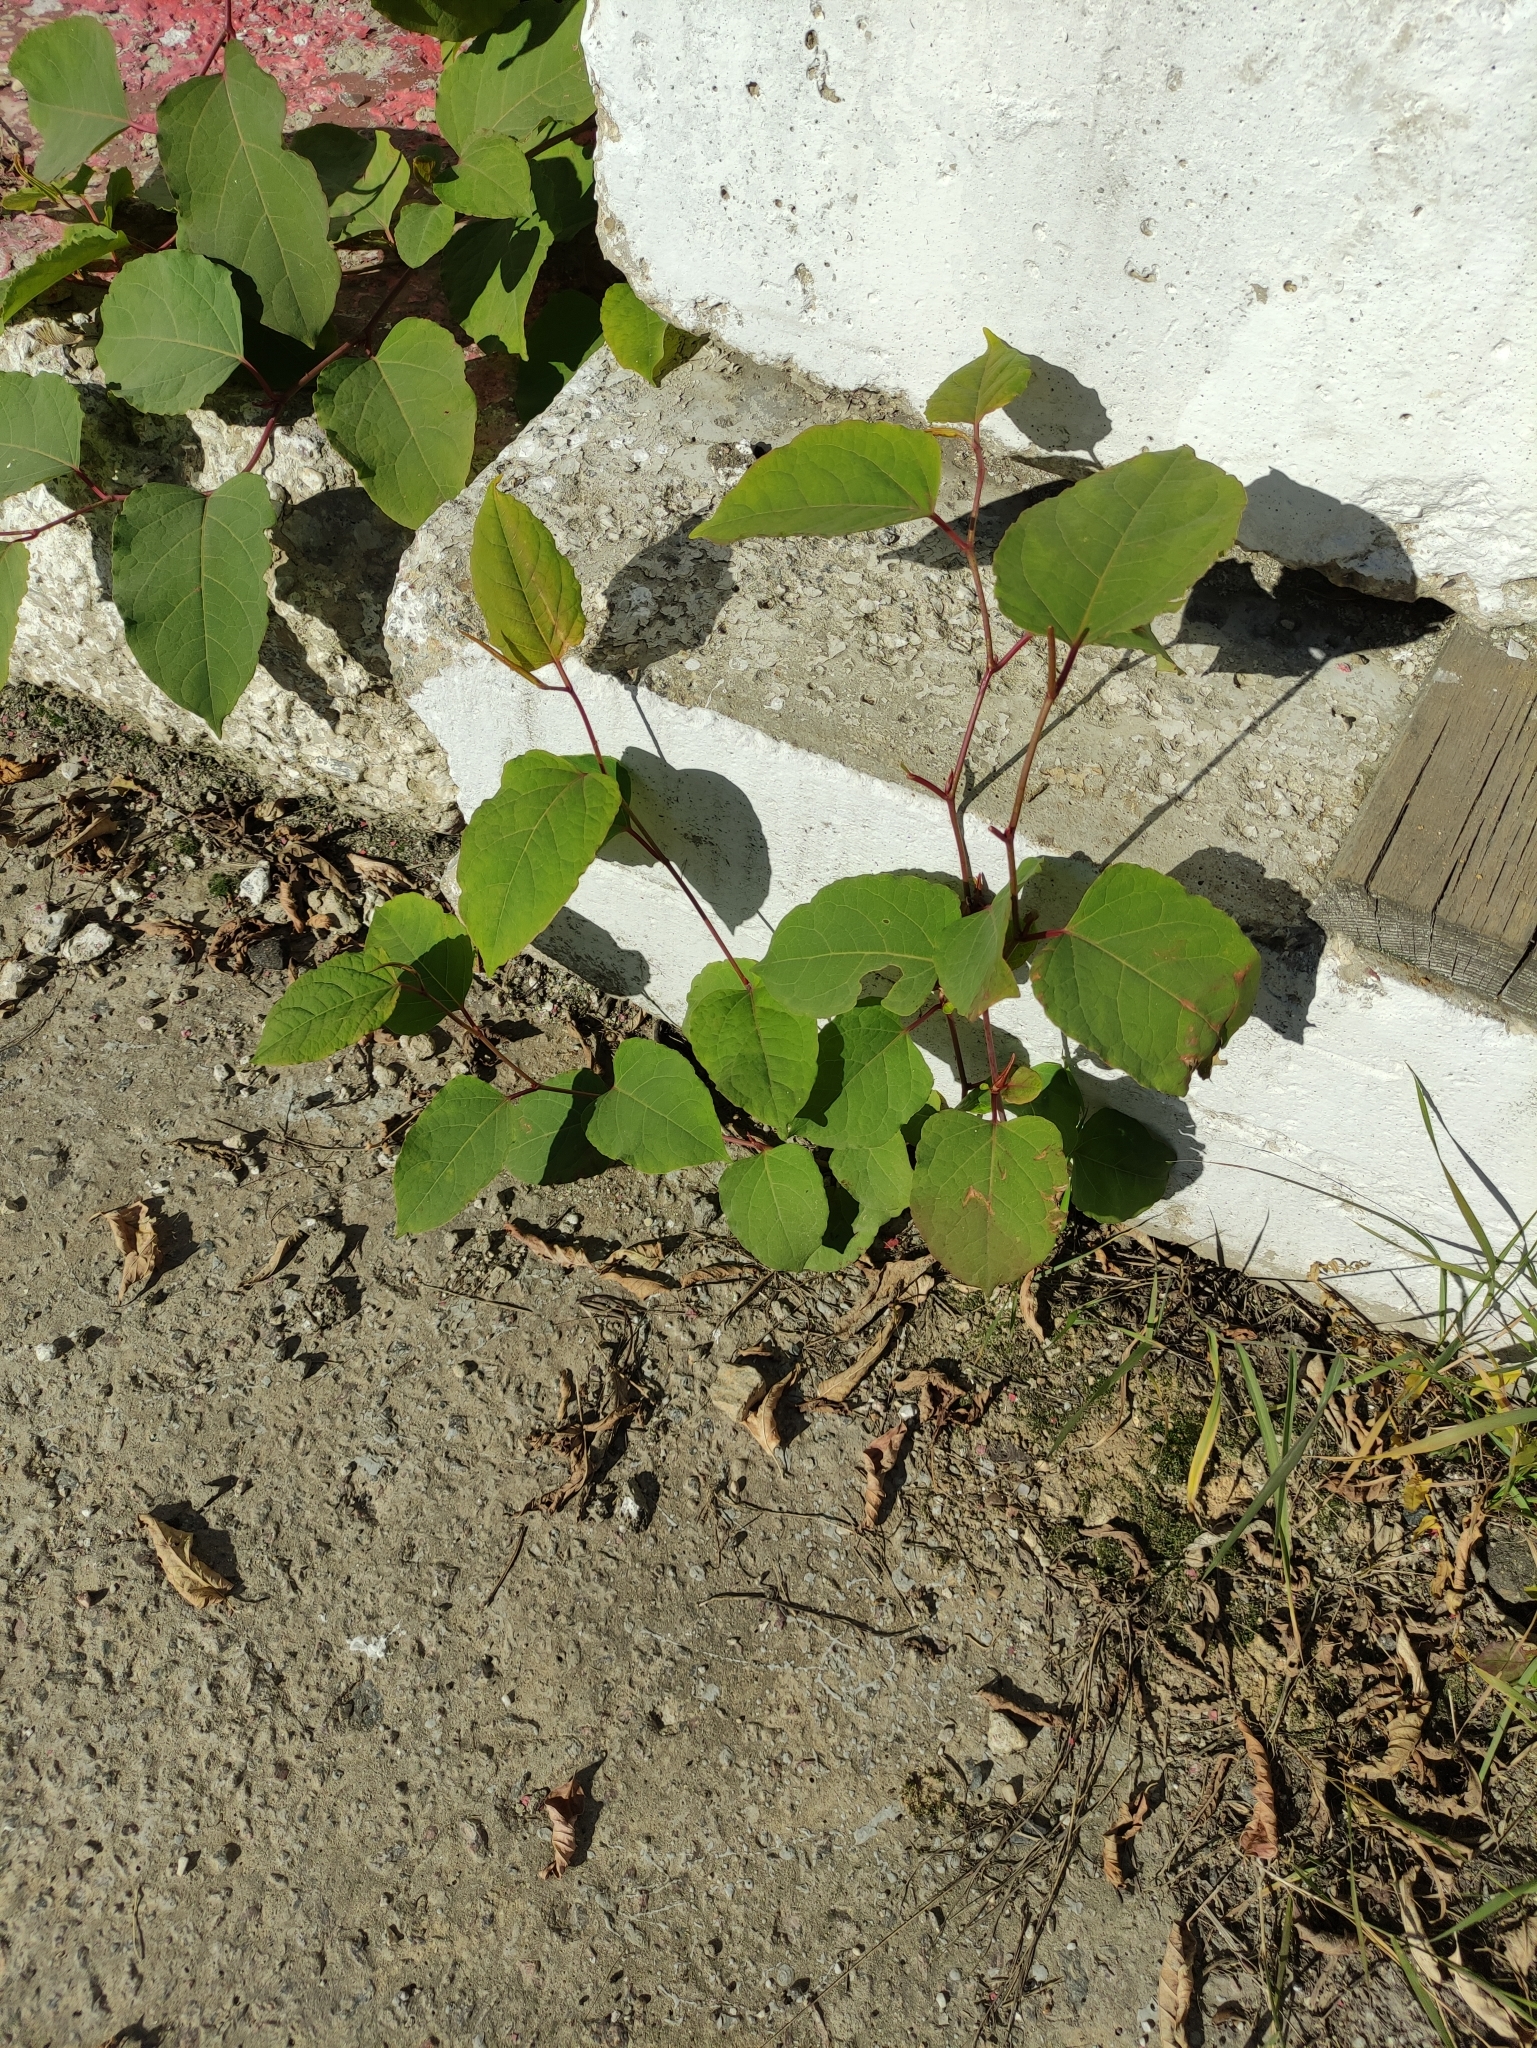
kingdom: Plantae
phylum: Tracheophyta
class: Magnoliopsida
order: Caryophyllales
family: Polygonaceae
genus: Reynoutria
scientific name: Reynoutria bohemica
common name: Bohemian knotweed
